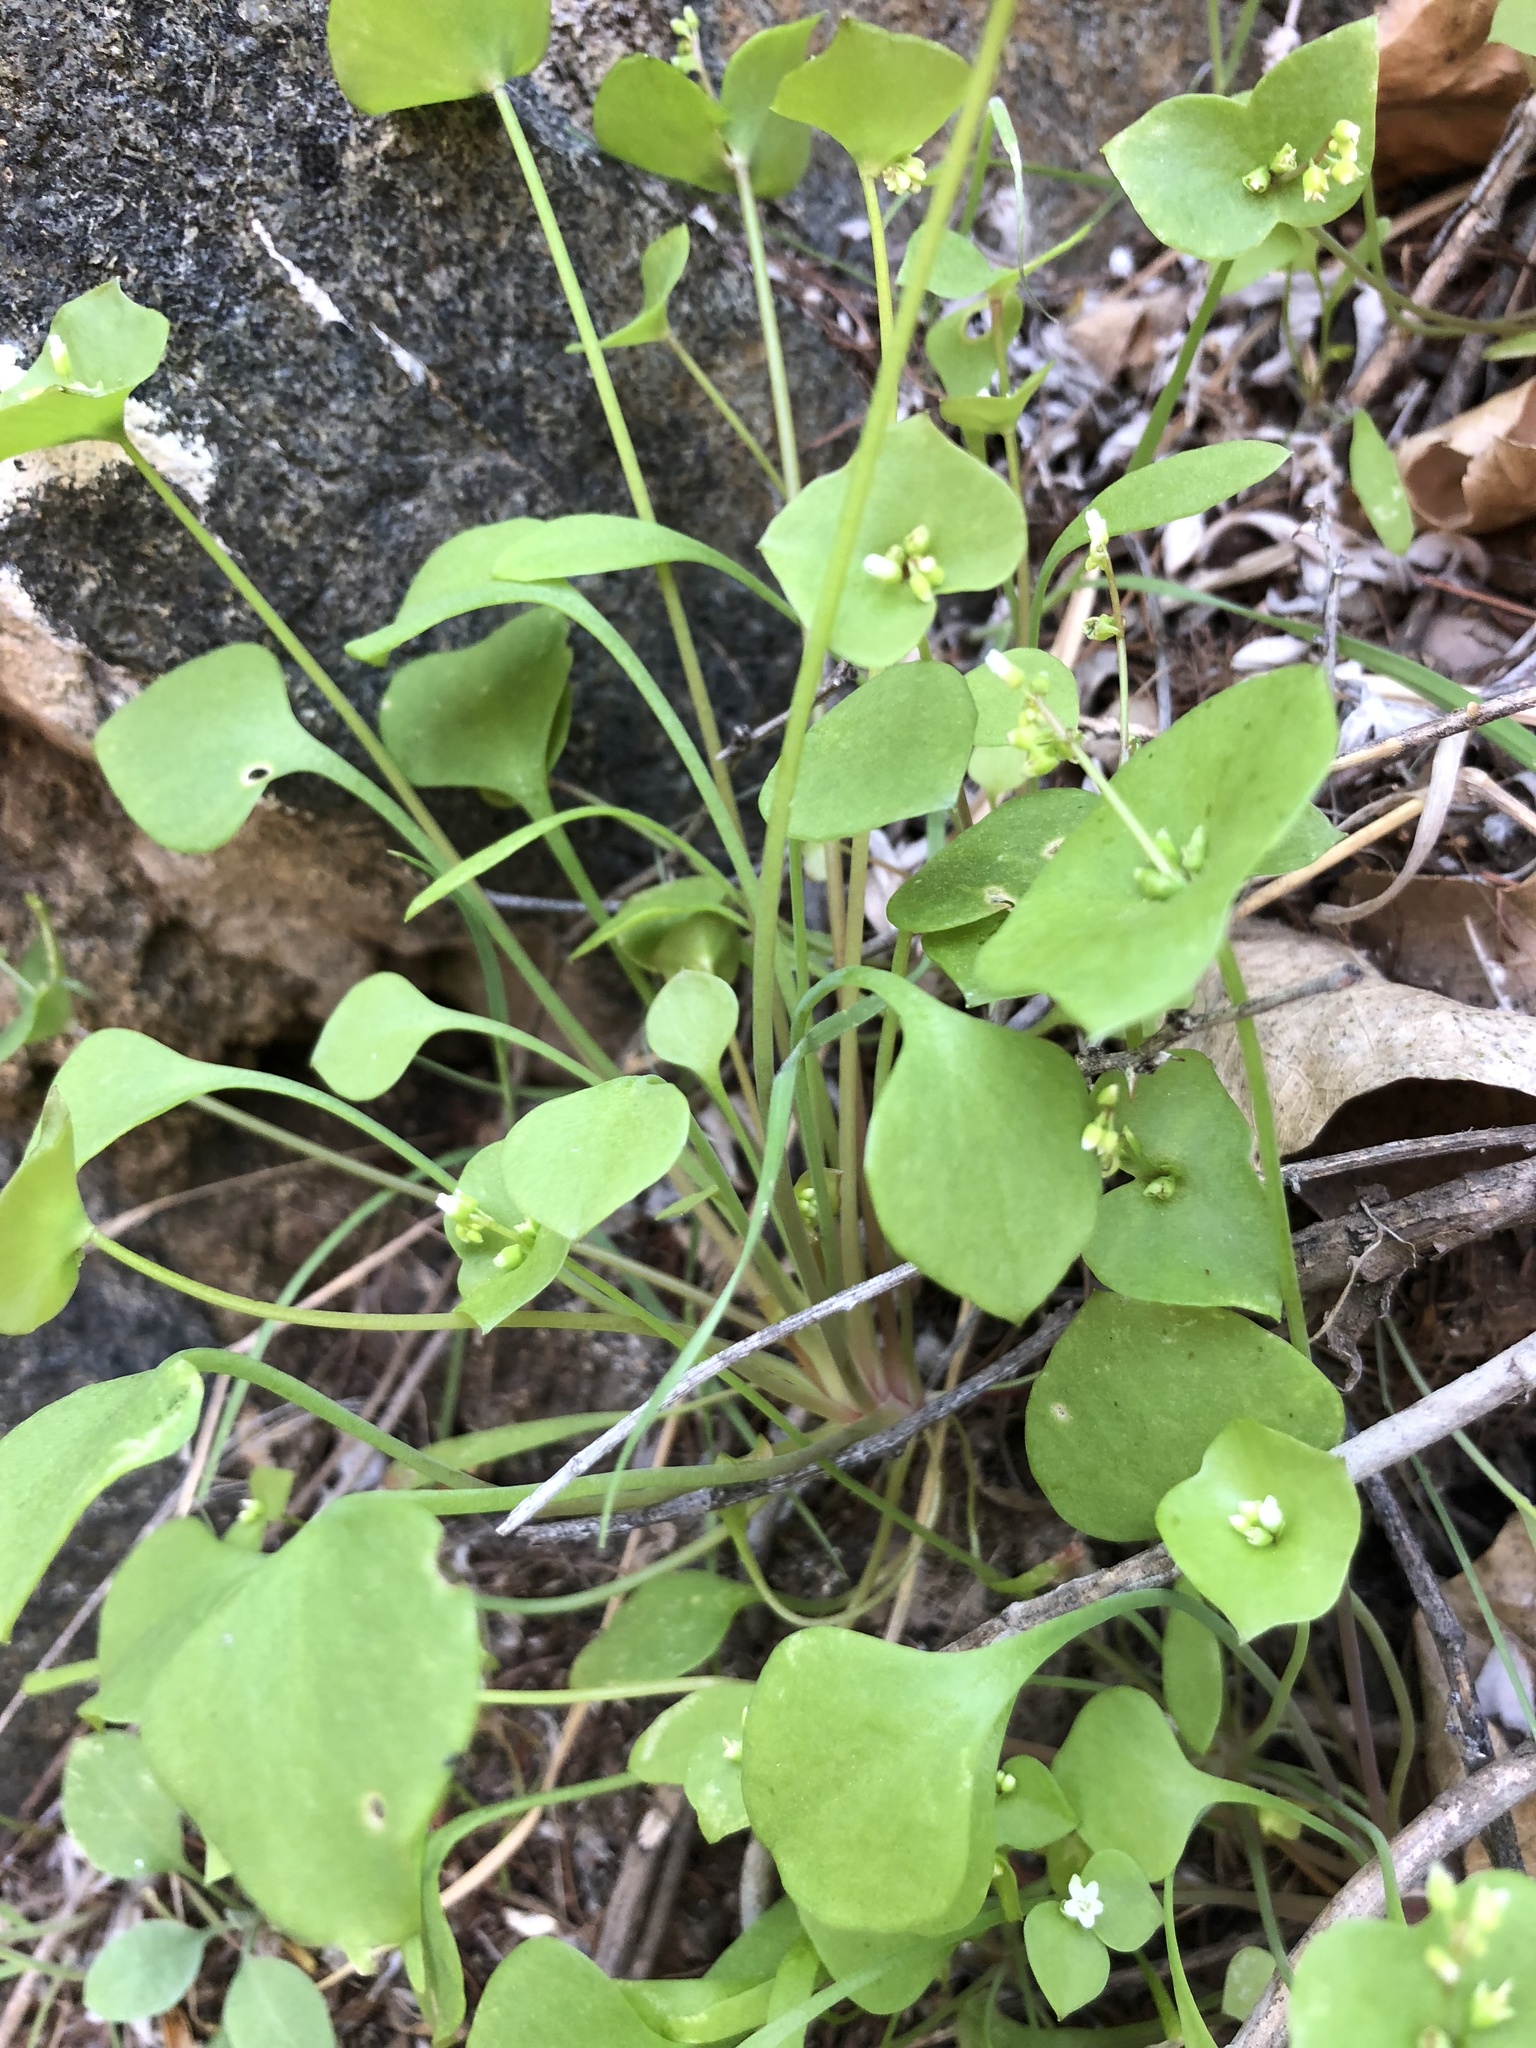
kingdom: Plantae
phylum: Tracheophyta
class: Magnoliopsida
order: Caryophyllales
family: Montiaceae
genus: Claytonia
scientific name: Claytonia perfoliata
